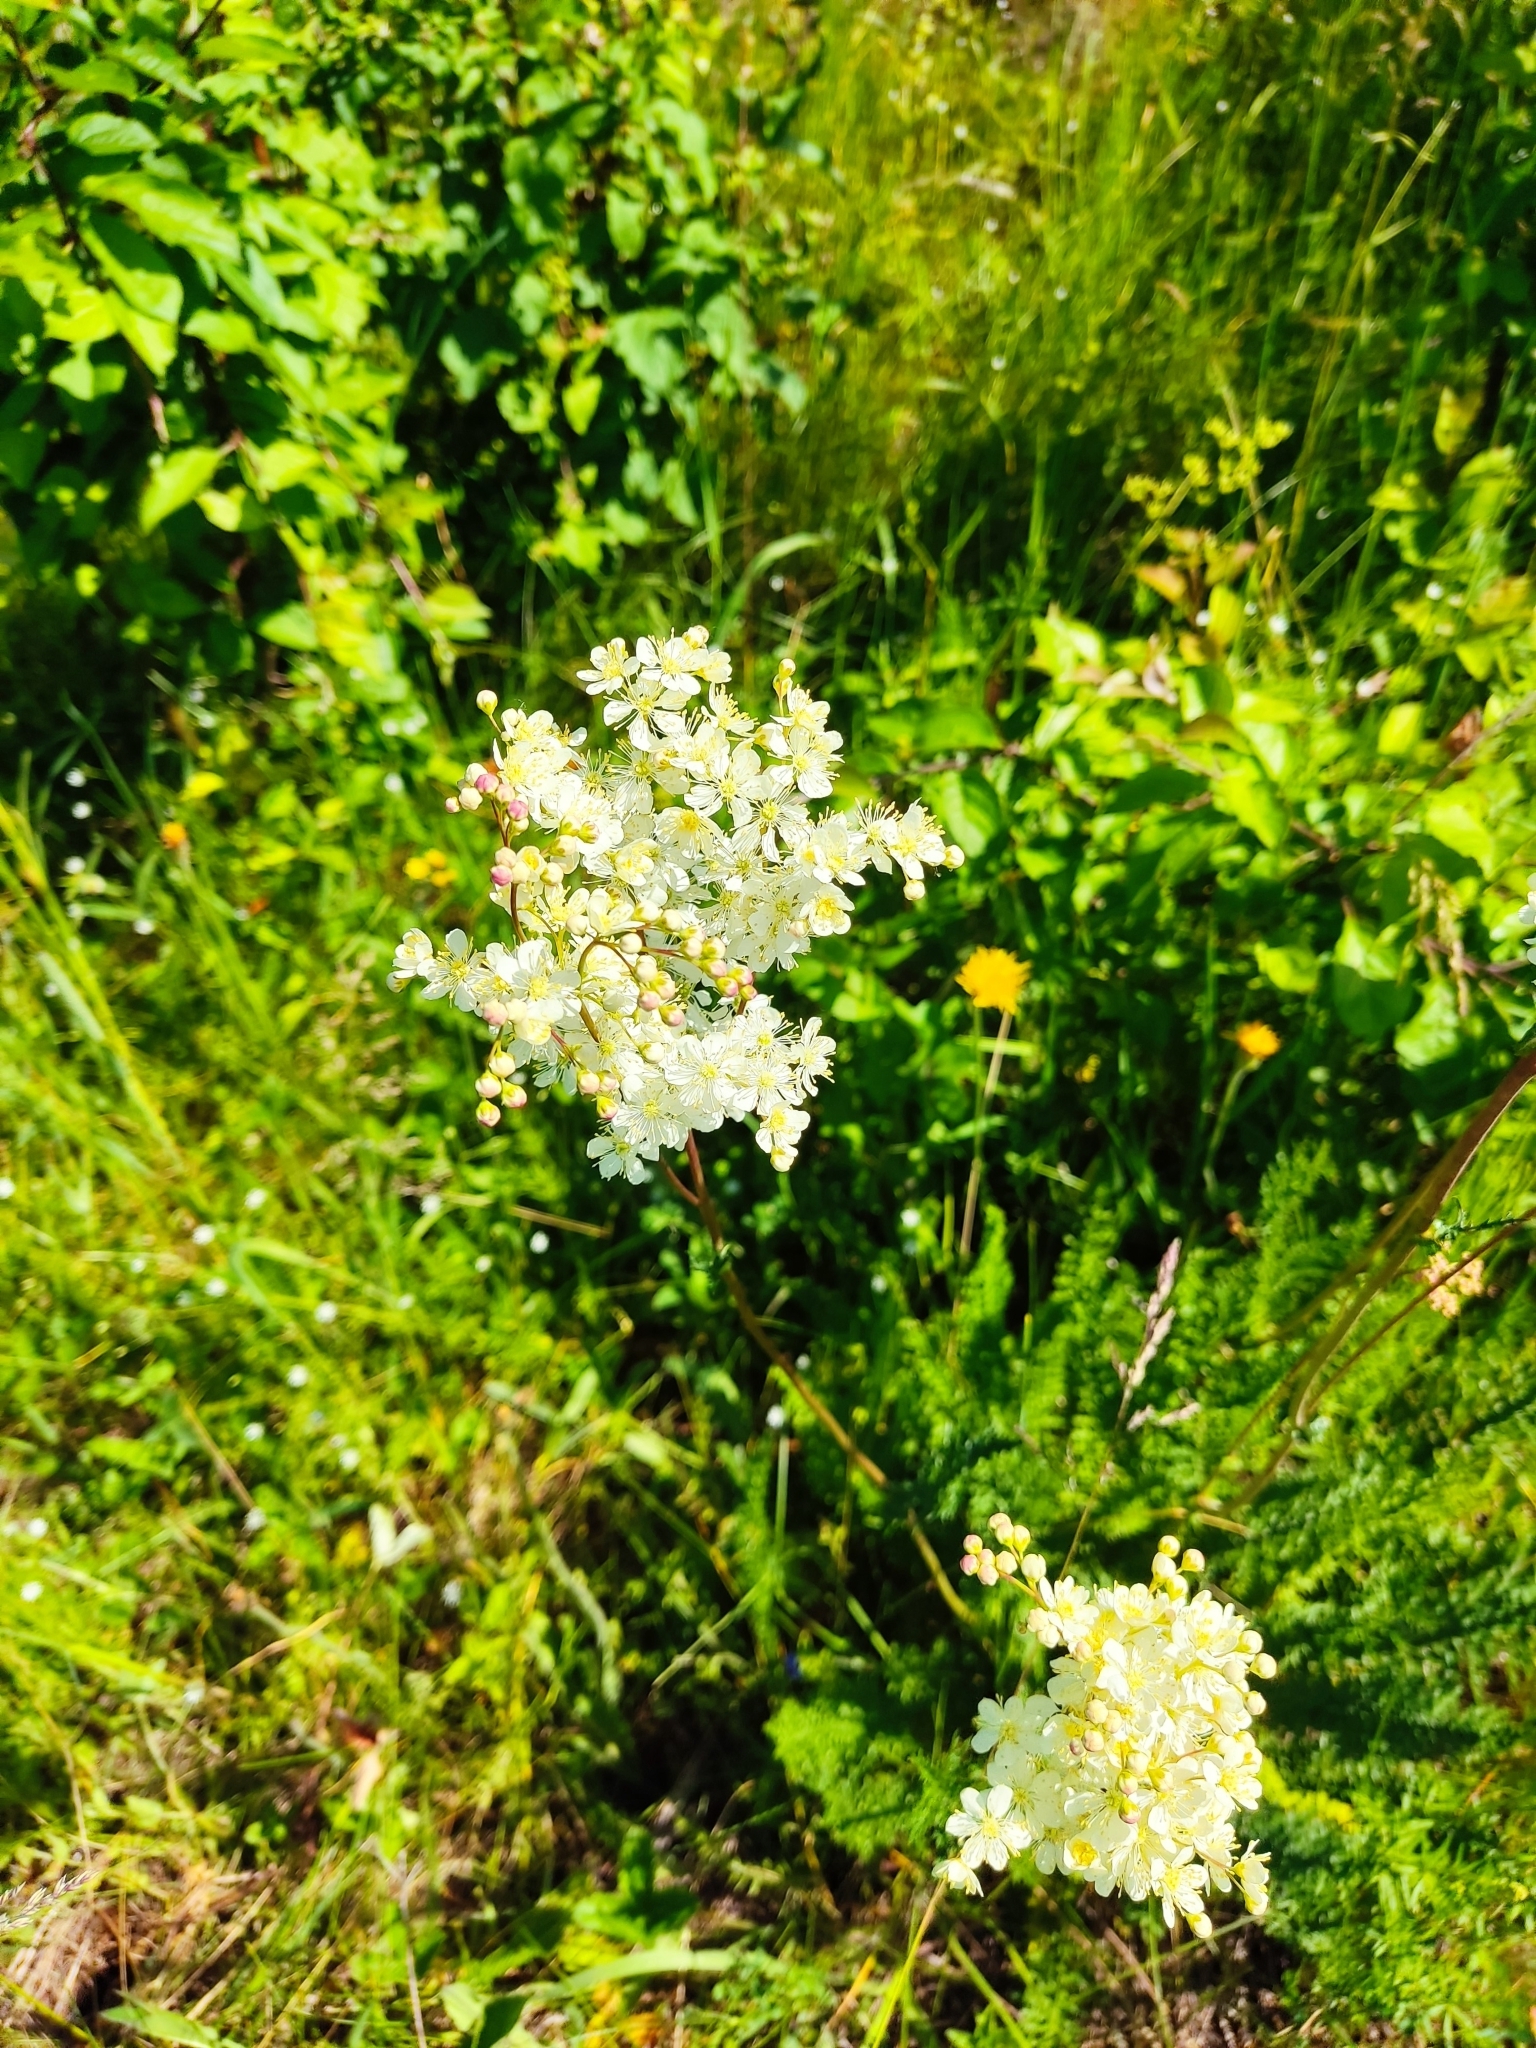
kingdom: Plantae
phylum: Tracheophyta
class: Magnoliopsida
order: Rosales
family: Rosaceae
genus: Filipendula
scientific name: Filipendula vulgaris
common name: Dropwort
